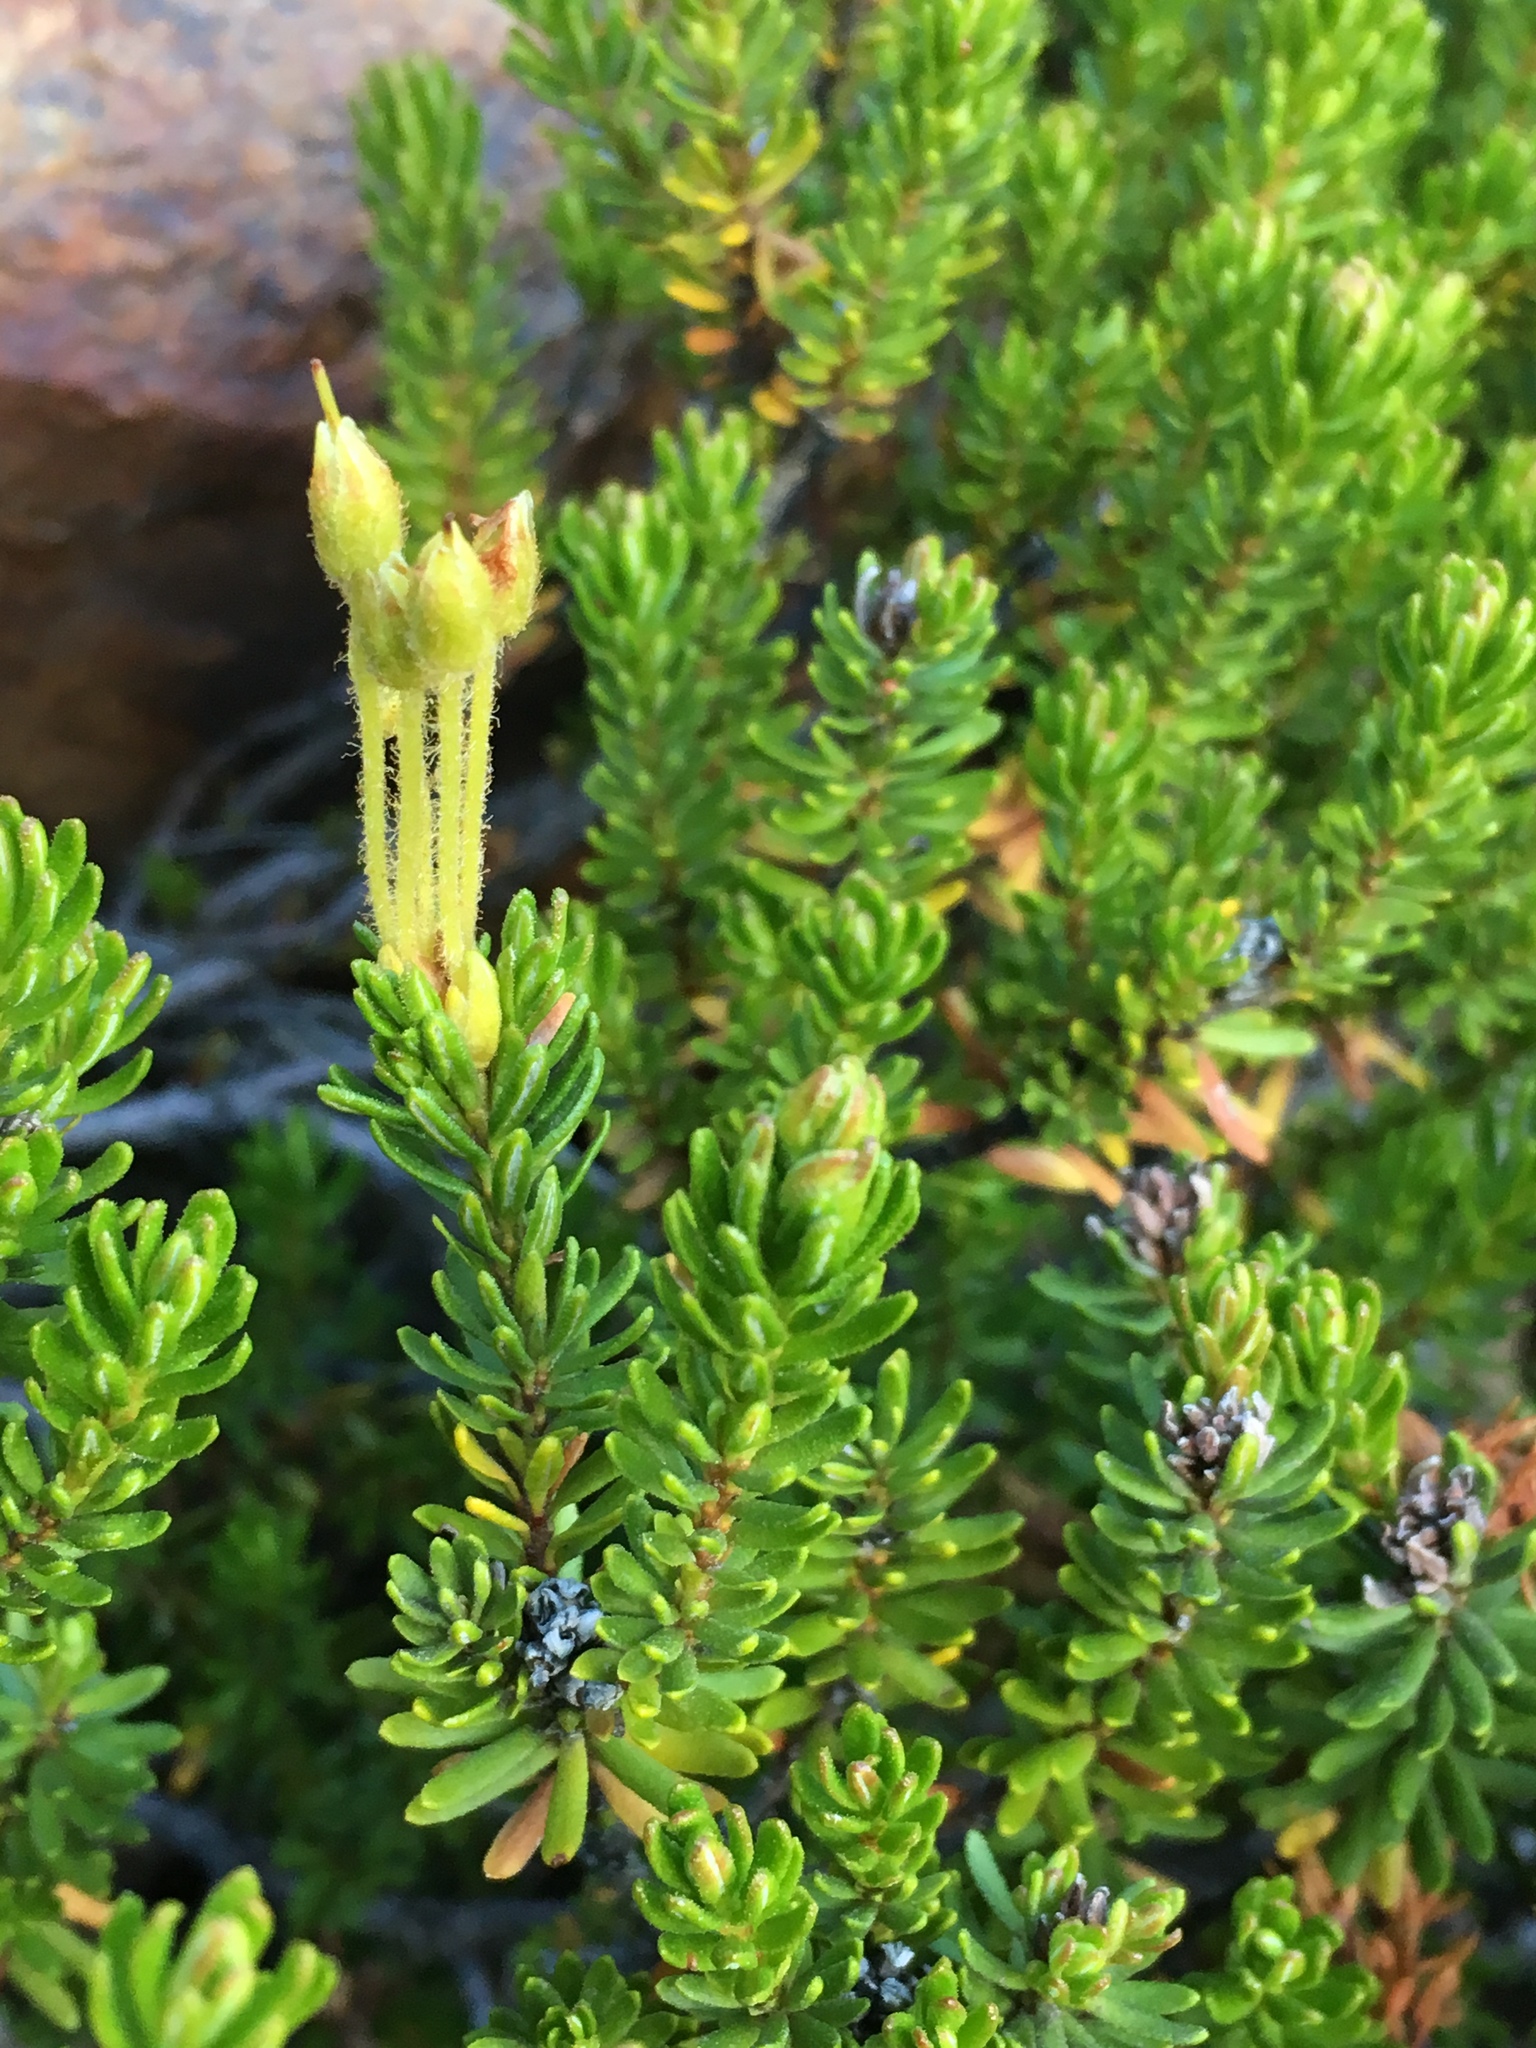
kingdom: Plantae
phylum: Tracheophyta
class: Magnoliopsida
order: Ericales
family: Ericaceae
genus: Phyllodoce
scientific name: Phyllodoce glanduliflora
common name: Cream mountain heather
